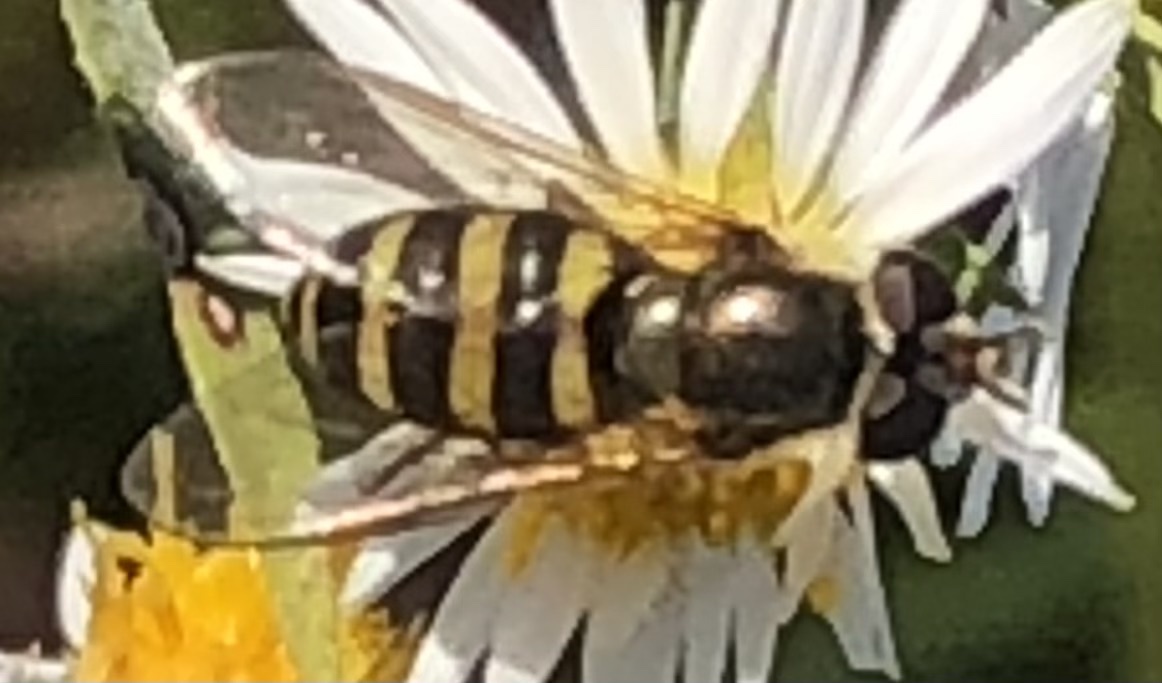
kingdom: Animalia
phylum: Arthropoda
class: Insecta
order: Diptera
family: Syrphidae
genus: Eupeodes
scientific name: Eupeodes
